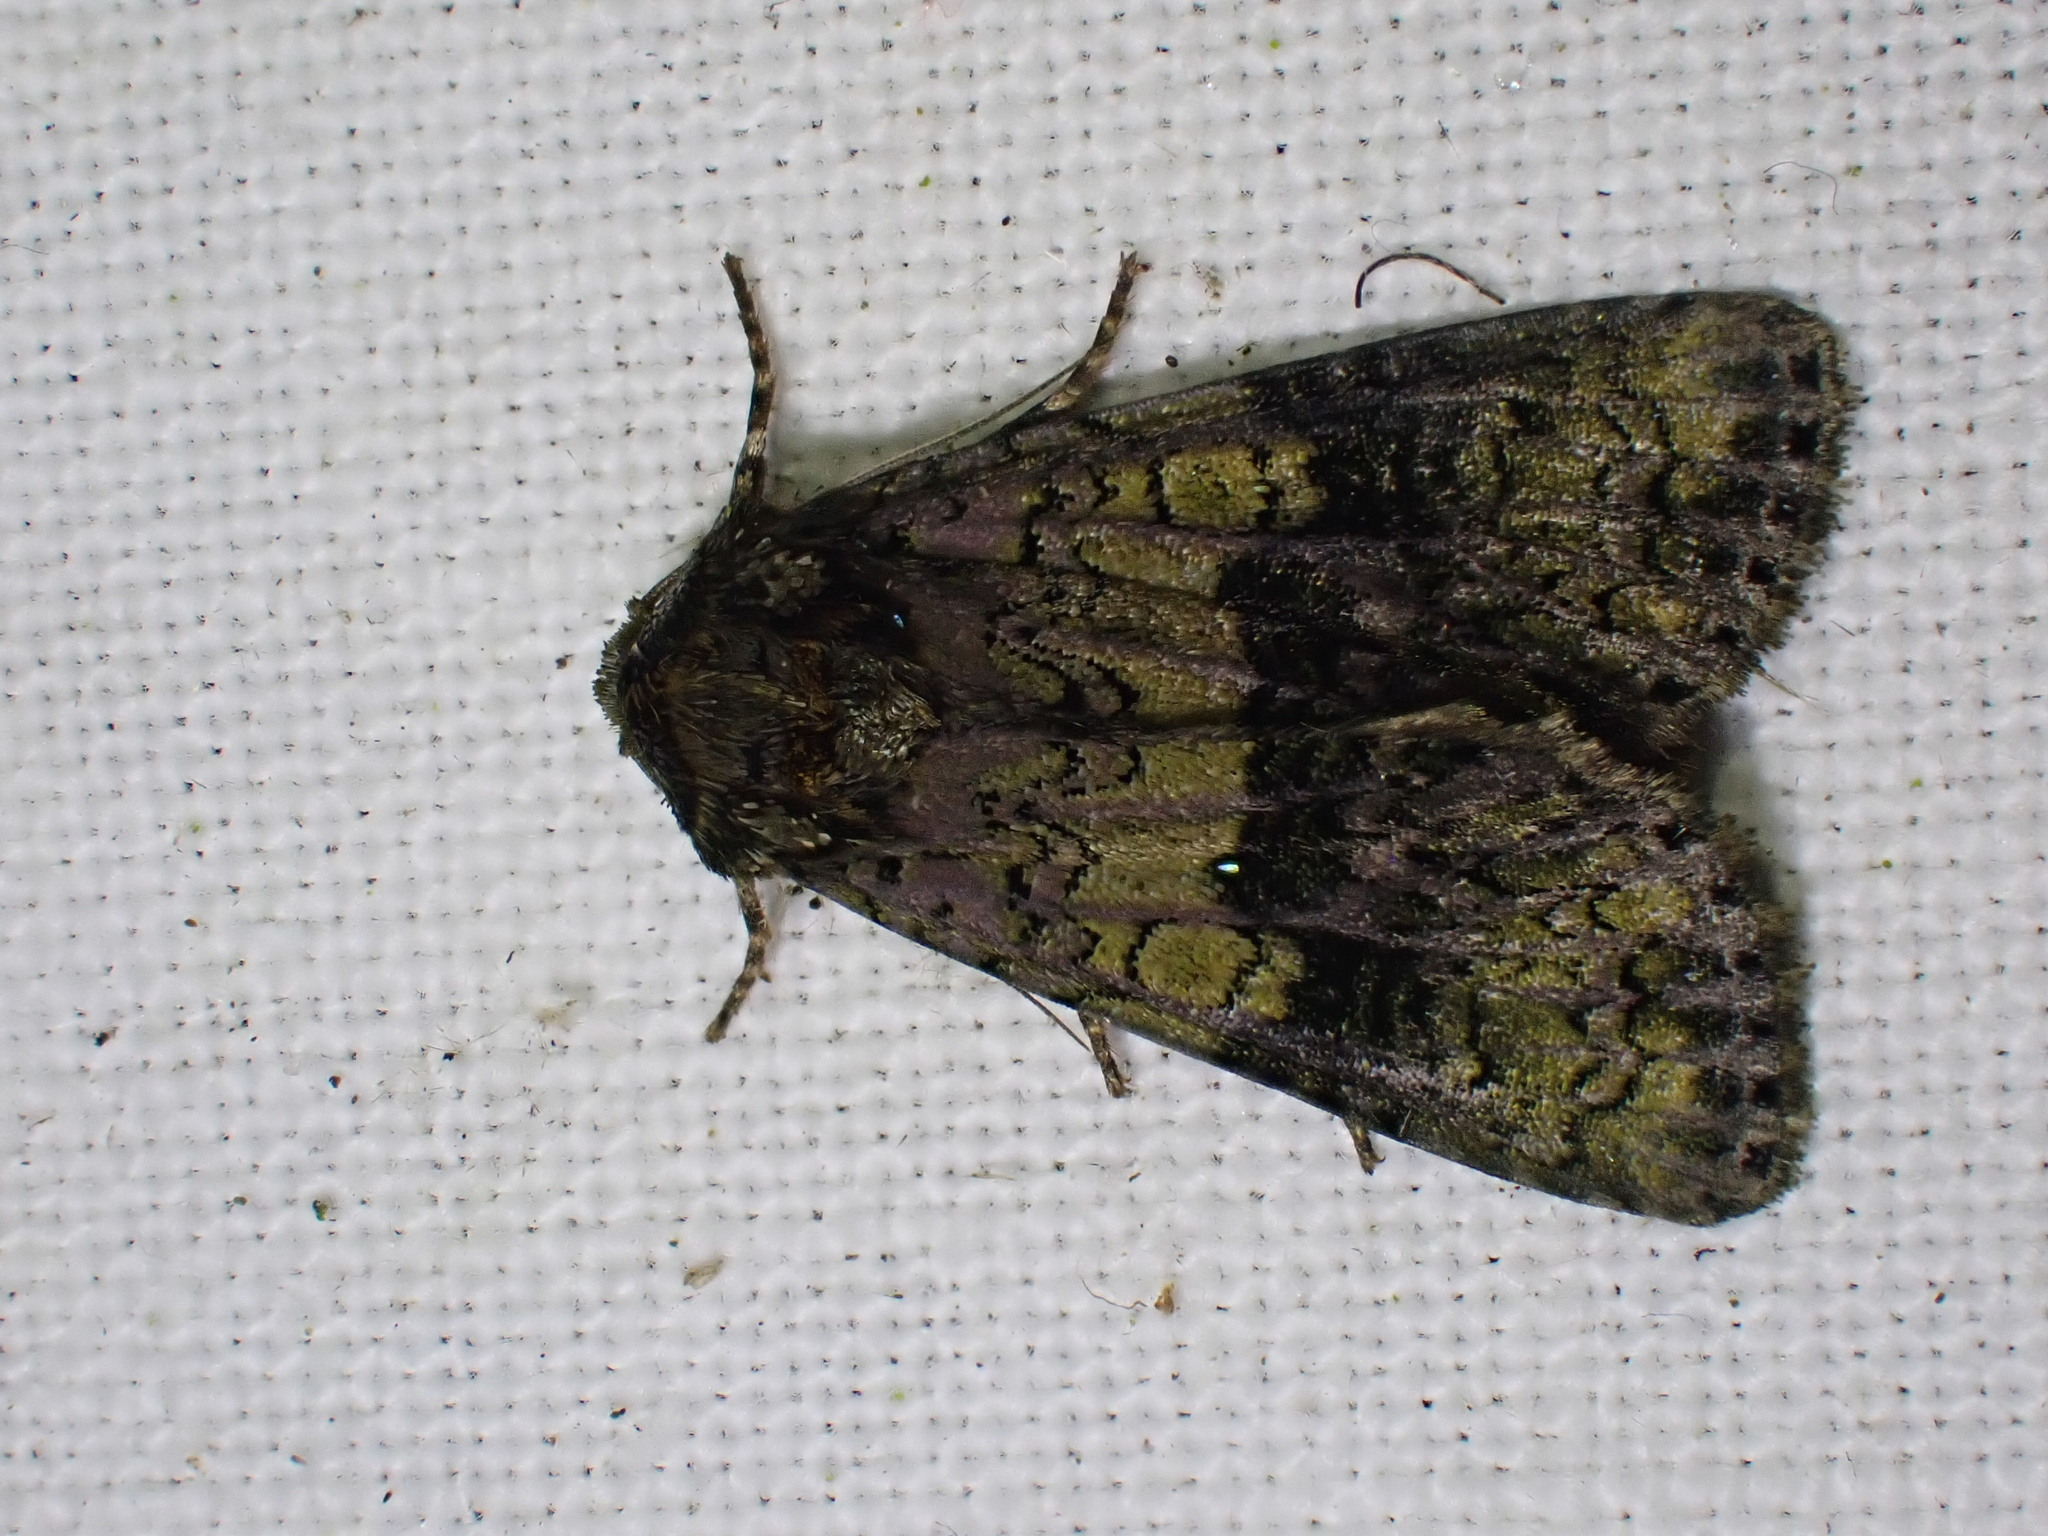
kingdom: Animalia
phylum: Arthropoda
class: Insecta
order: Lepidoptera
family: Noctuidae
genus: Craniophora
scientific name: Craniophora ligustri
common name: Coronet
